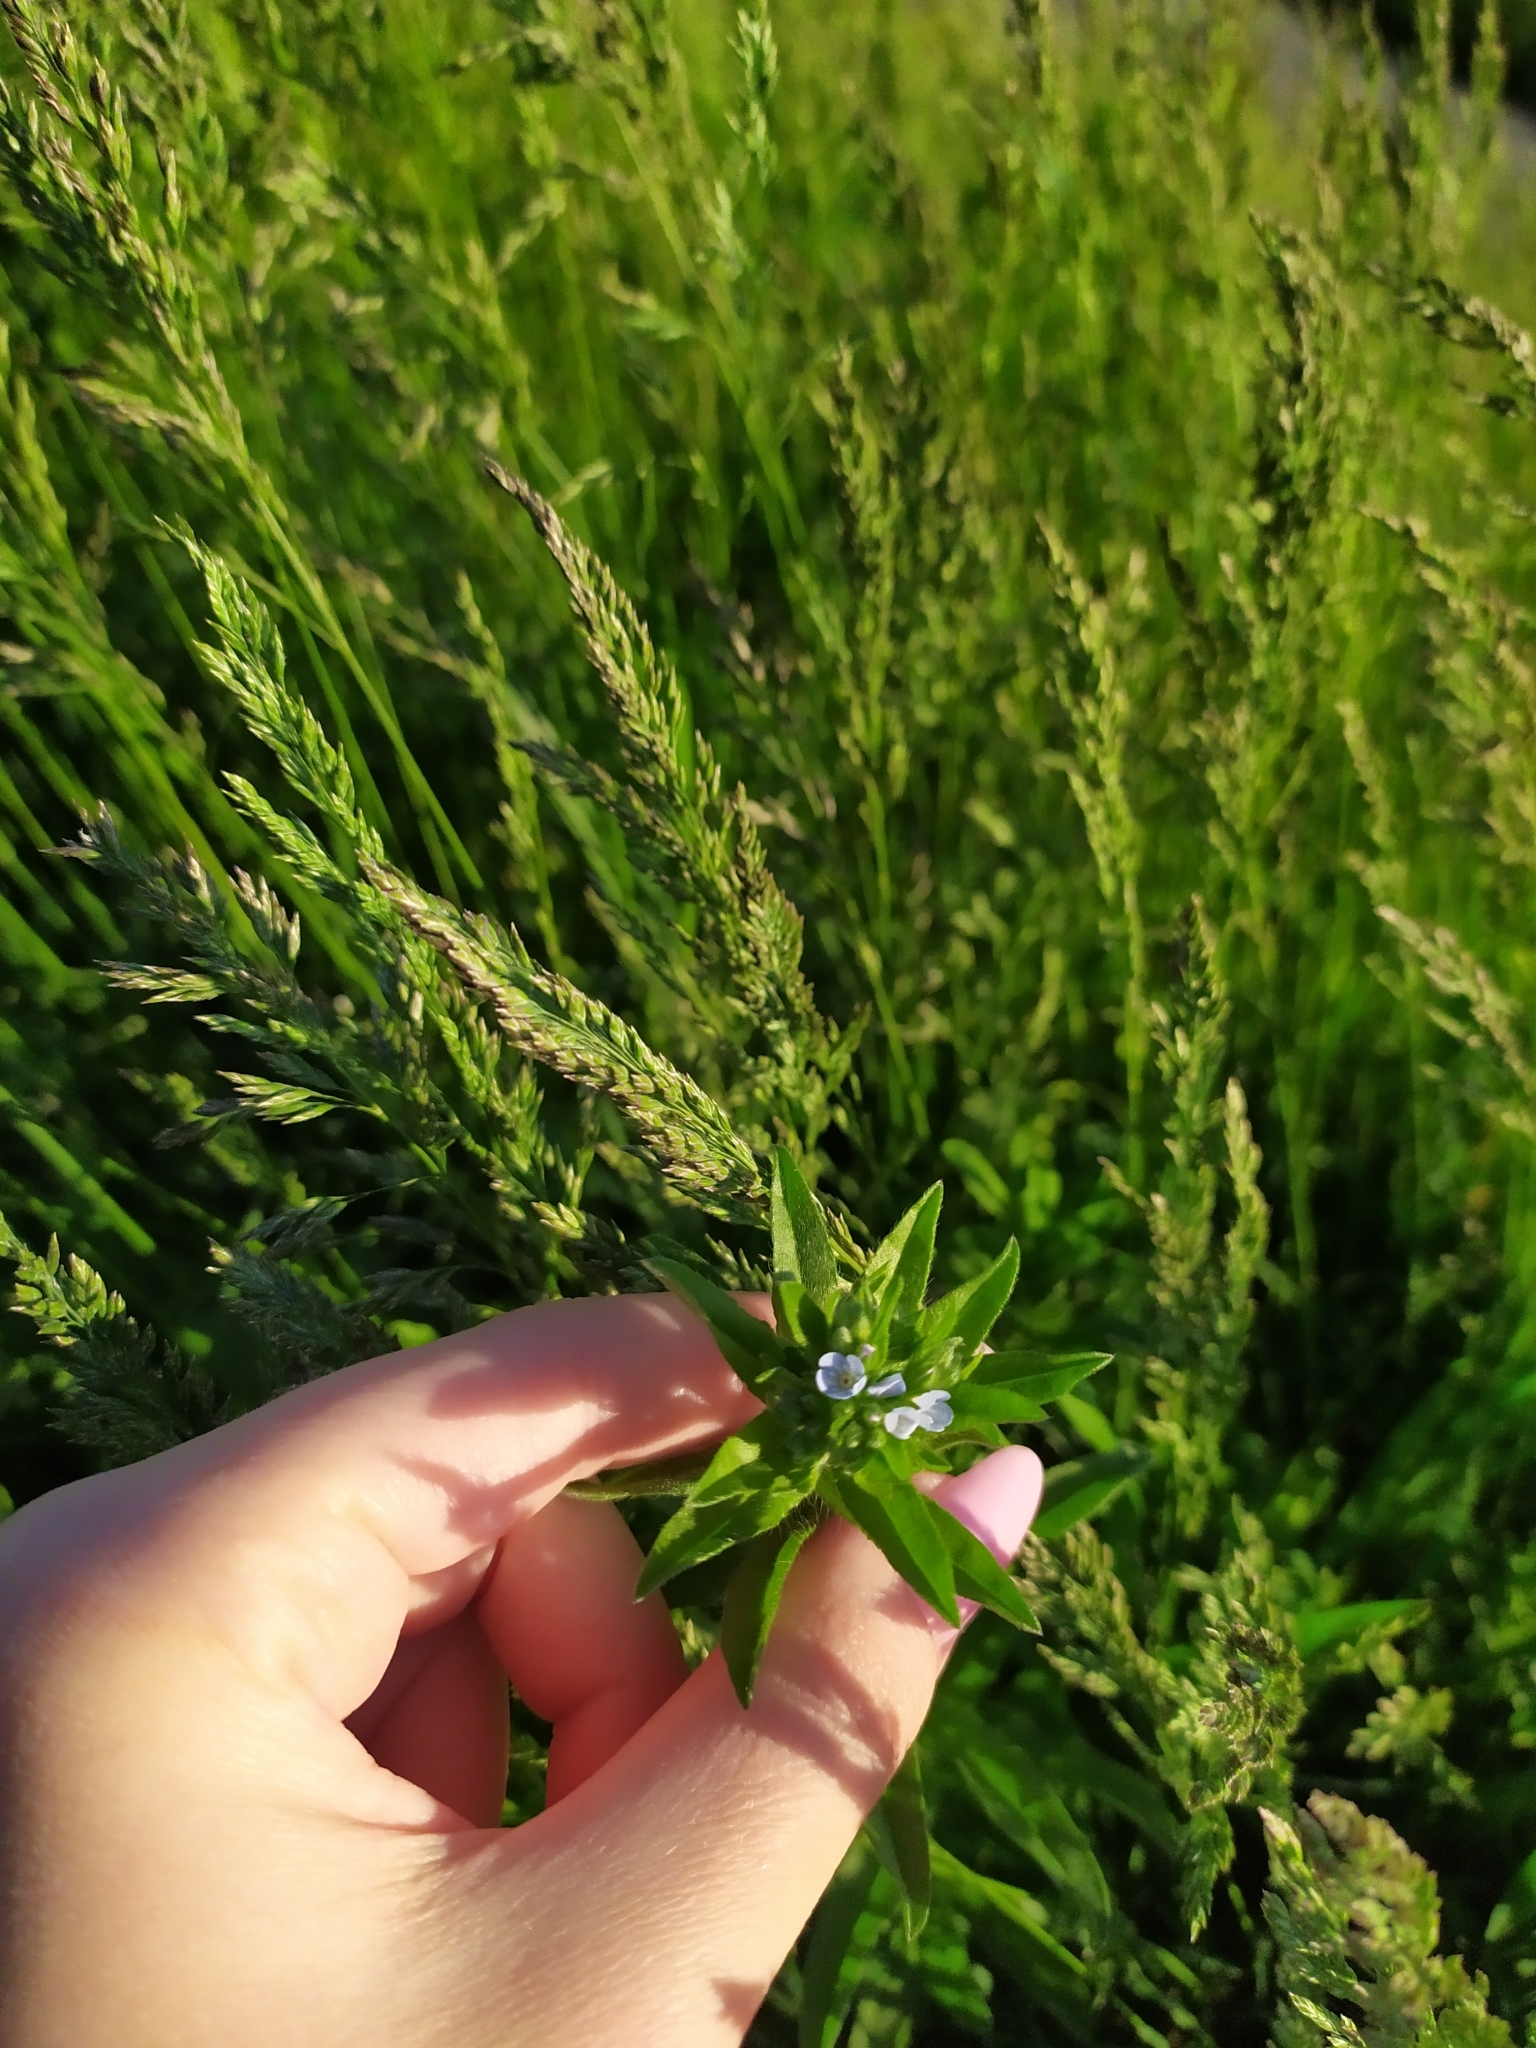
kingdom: Plantae
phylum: Tracheophyta
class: Magnoliopsida
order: Boraginales
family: Boraginaceae
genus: Lappula
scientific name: Lappula squarrosa
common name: European stickseed
